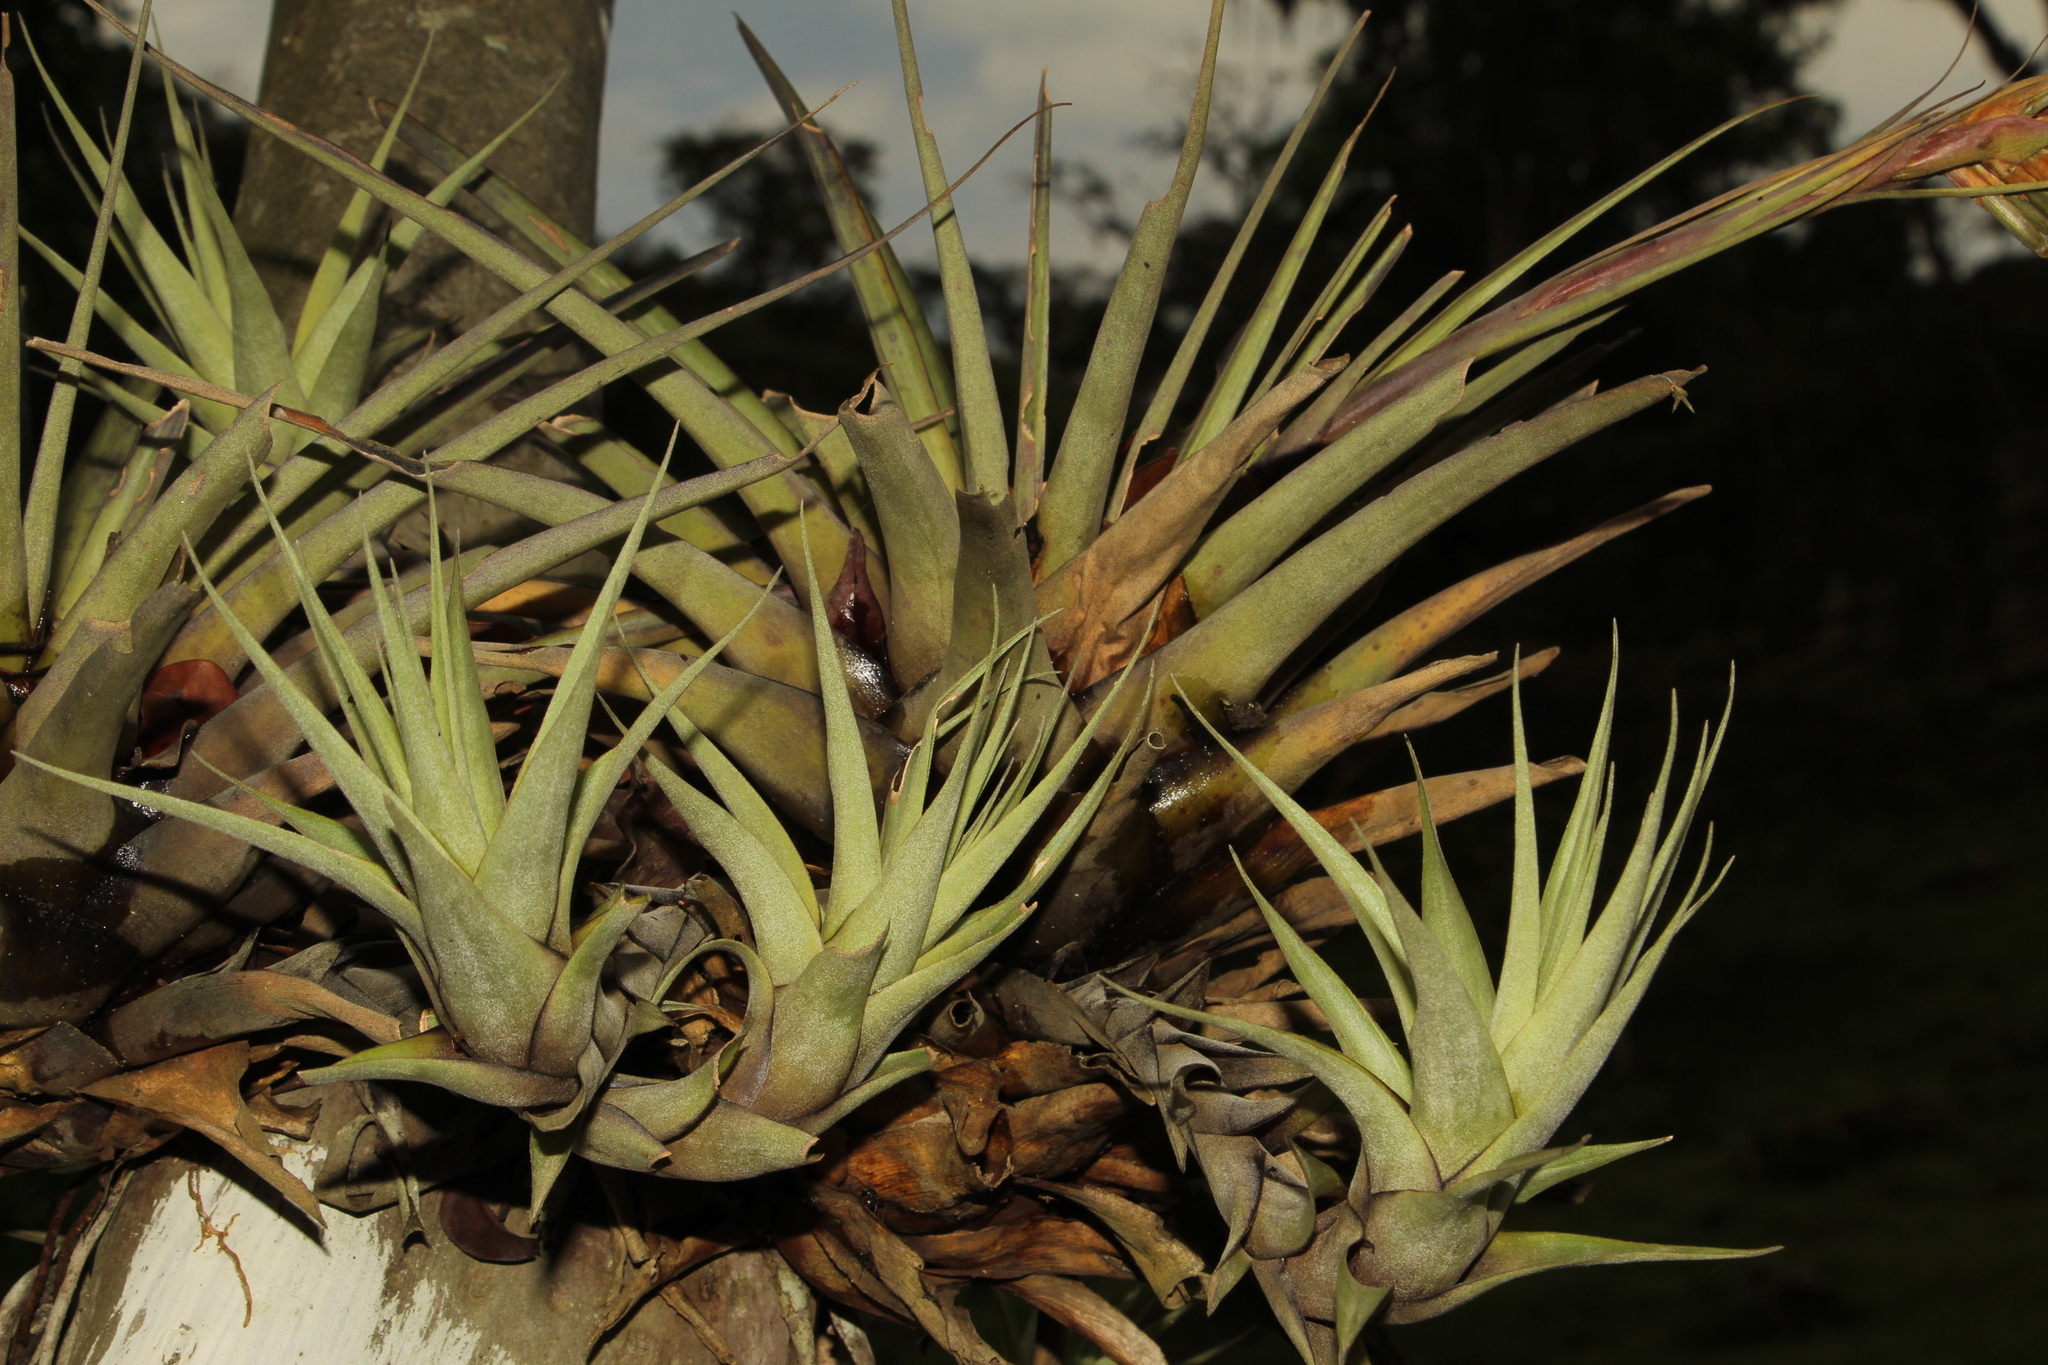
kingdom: Plantae
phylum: Tracheophyta
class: Liliopsida
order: Poales
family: Bromeliaceae
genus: Vriesea
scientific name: Vriesea myriantha
